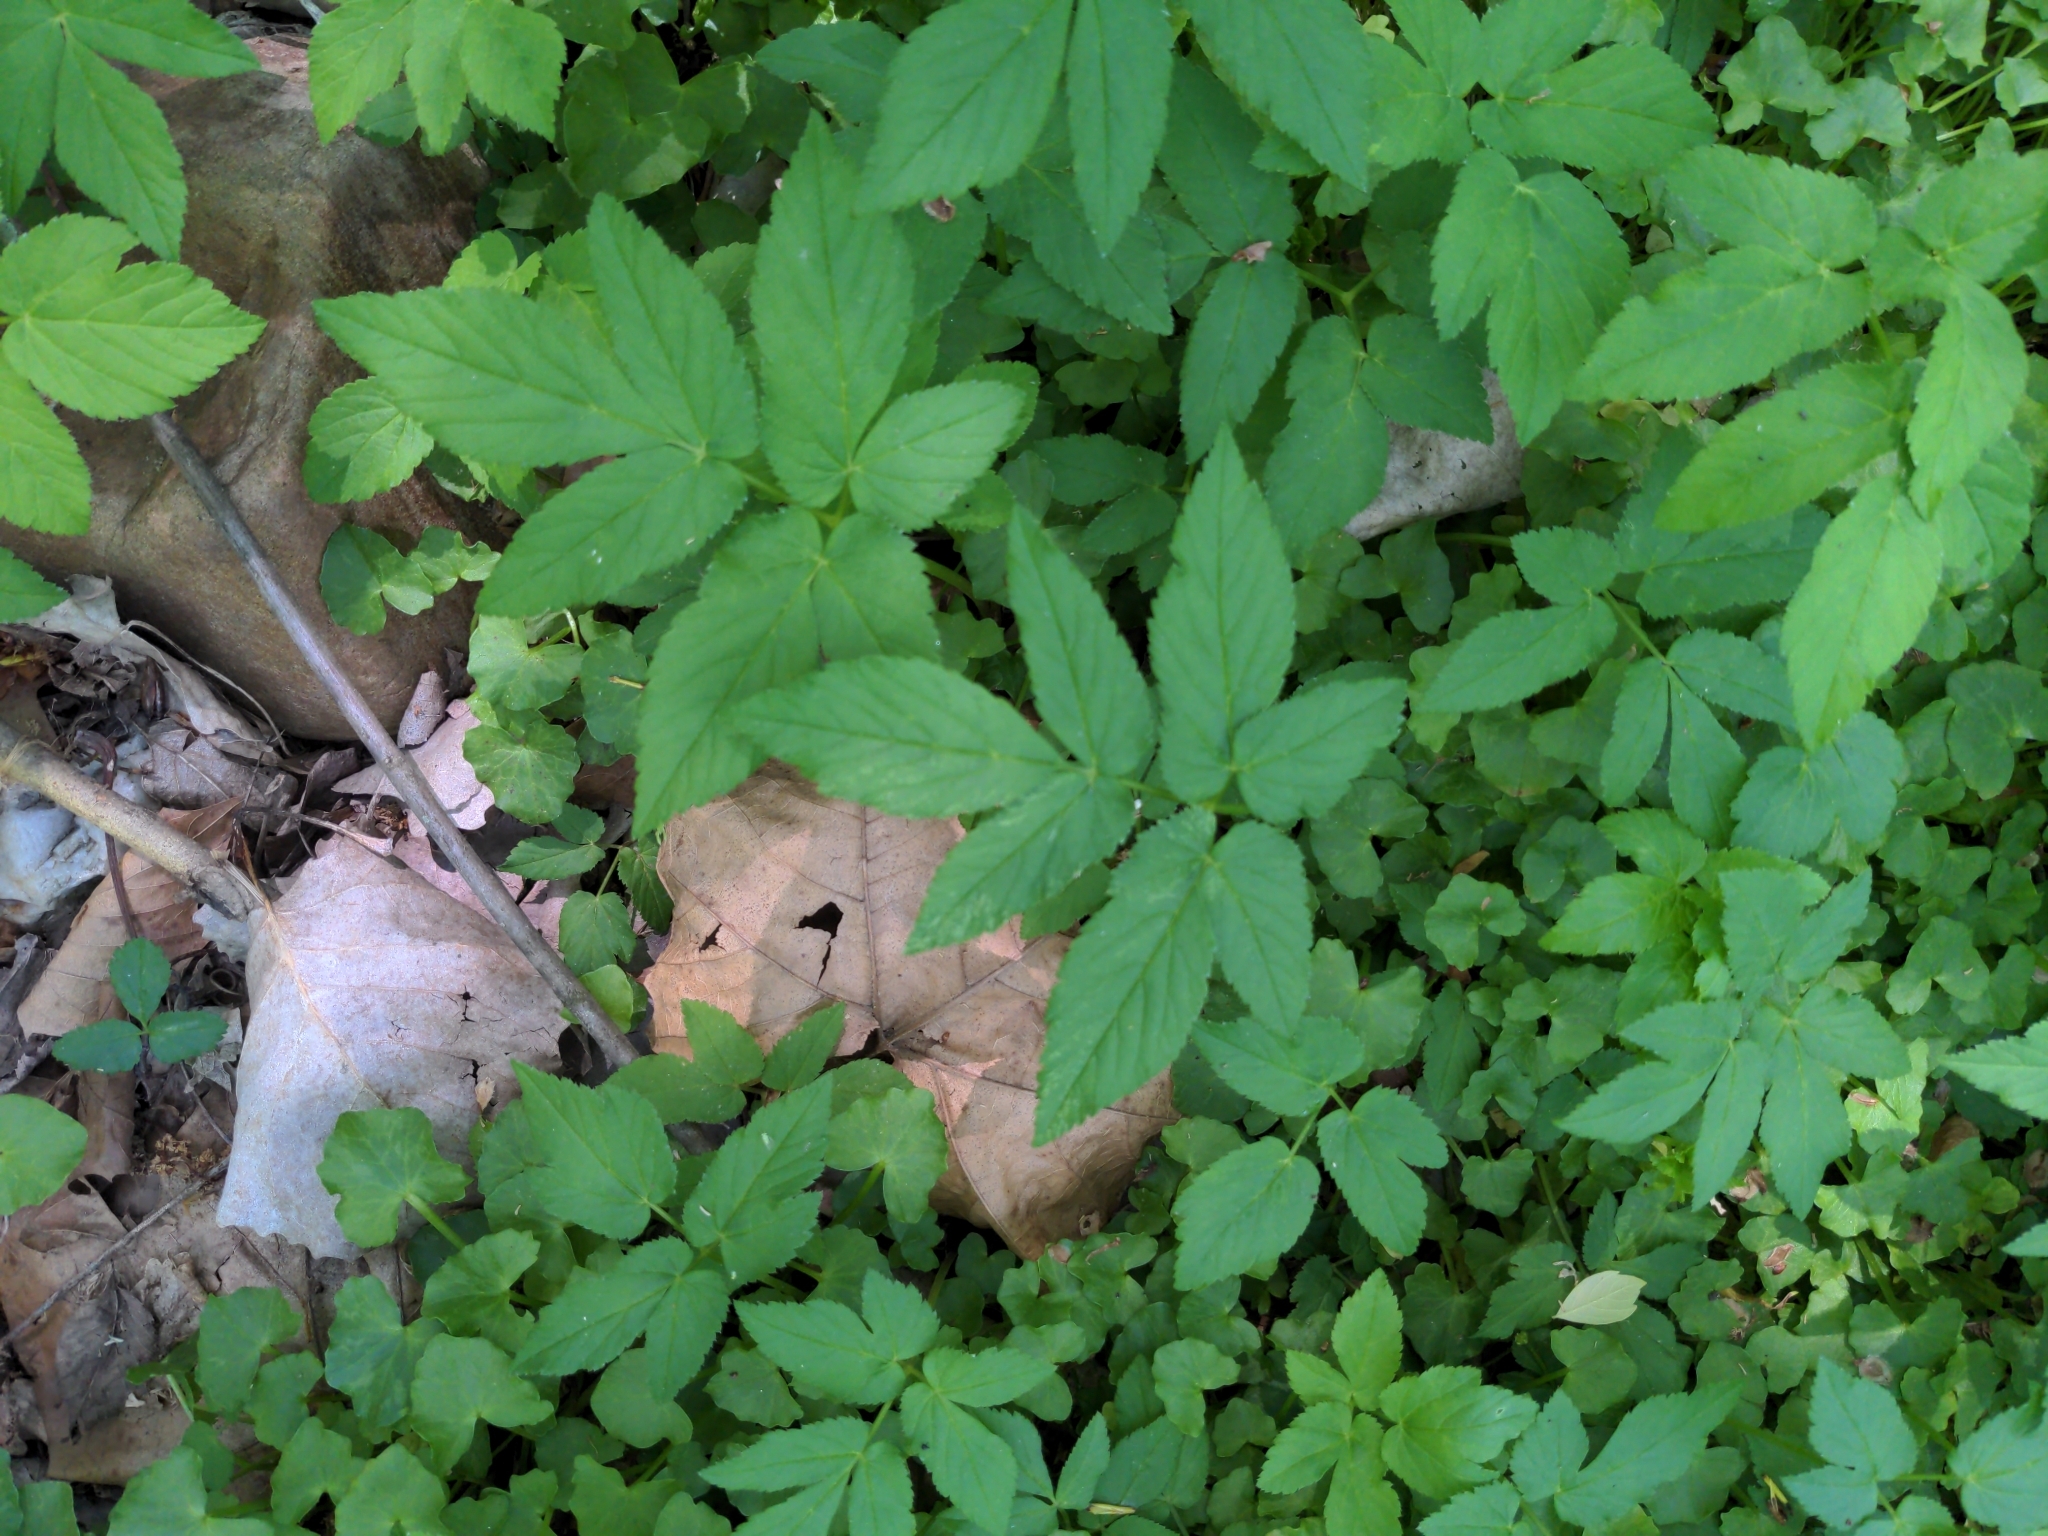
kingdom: Plantae
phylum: Tracheophyta
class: Magnoliopsida
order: Apiales
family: Apiaceae
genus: Aegopodium
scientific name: Aegopodium podagraria
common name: Ground-elder
